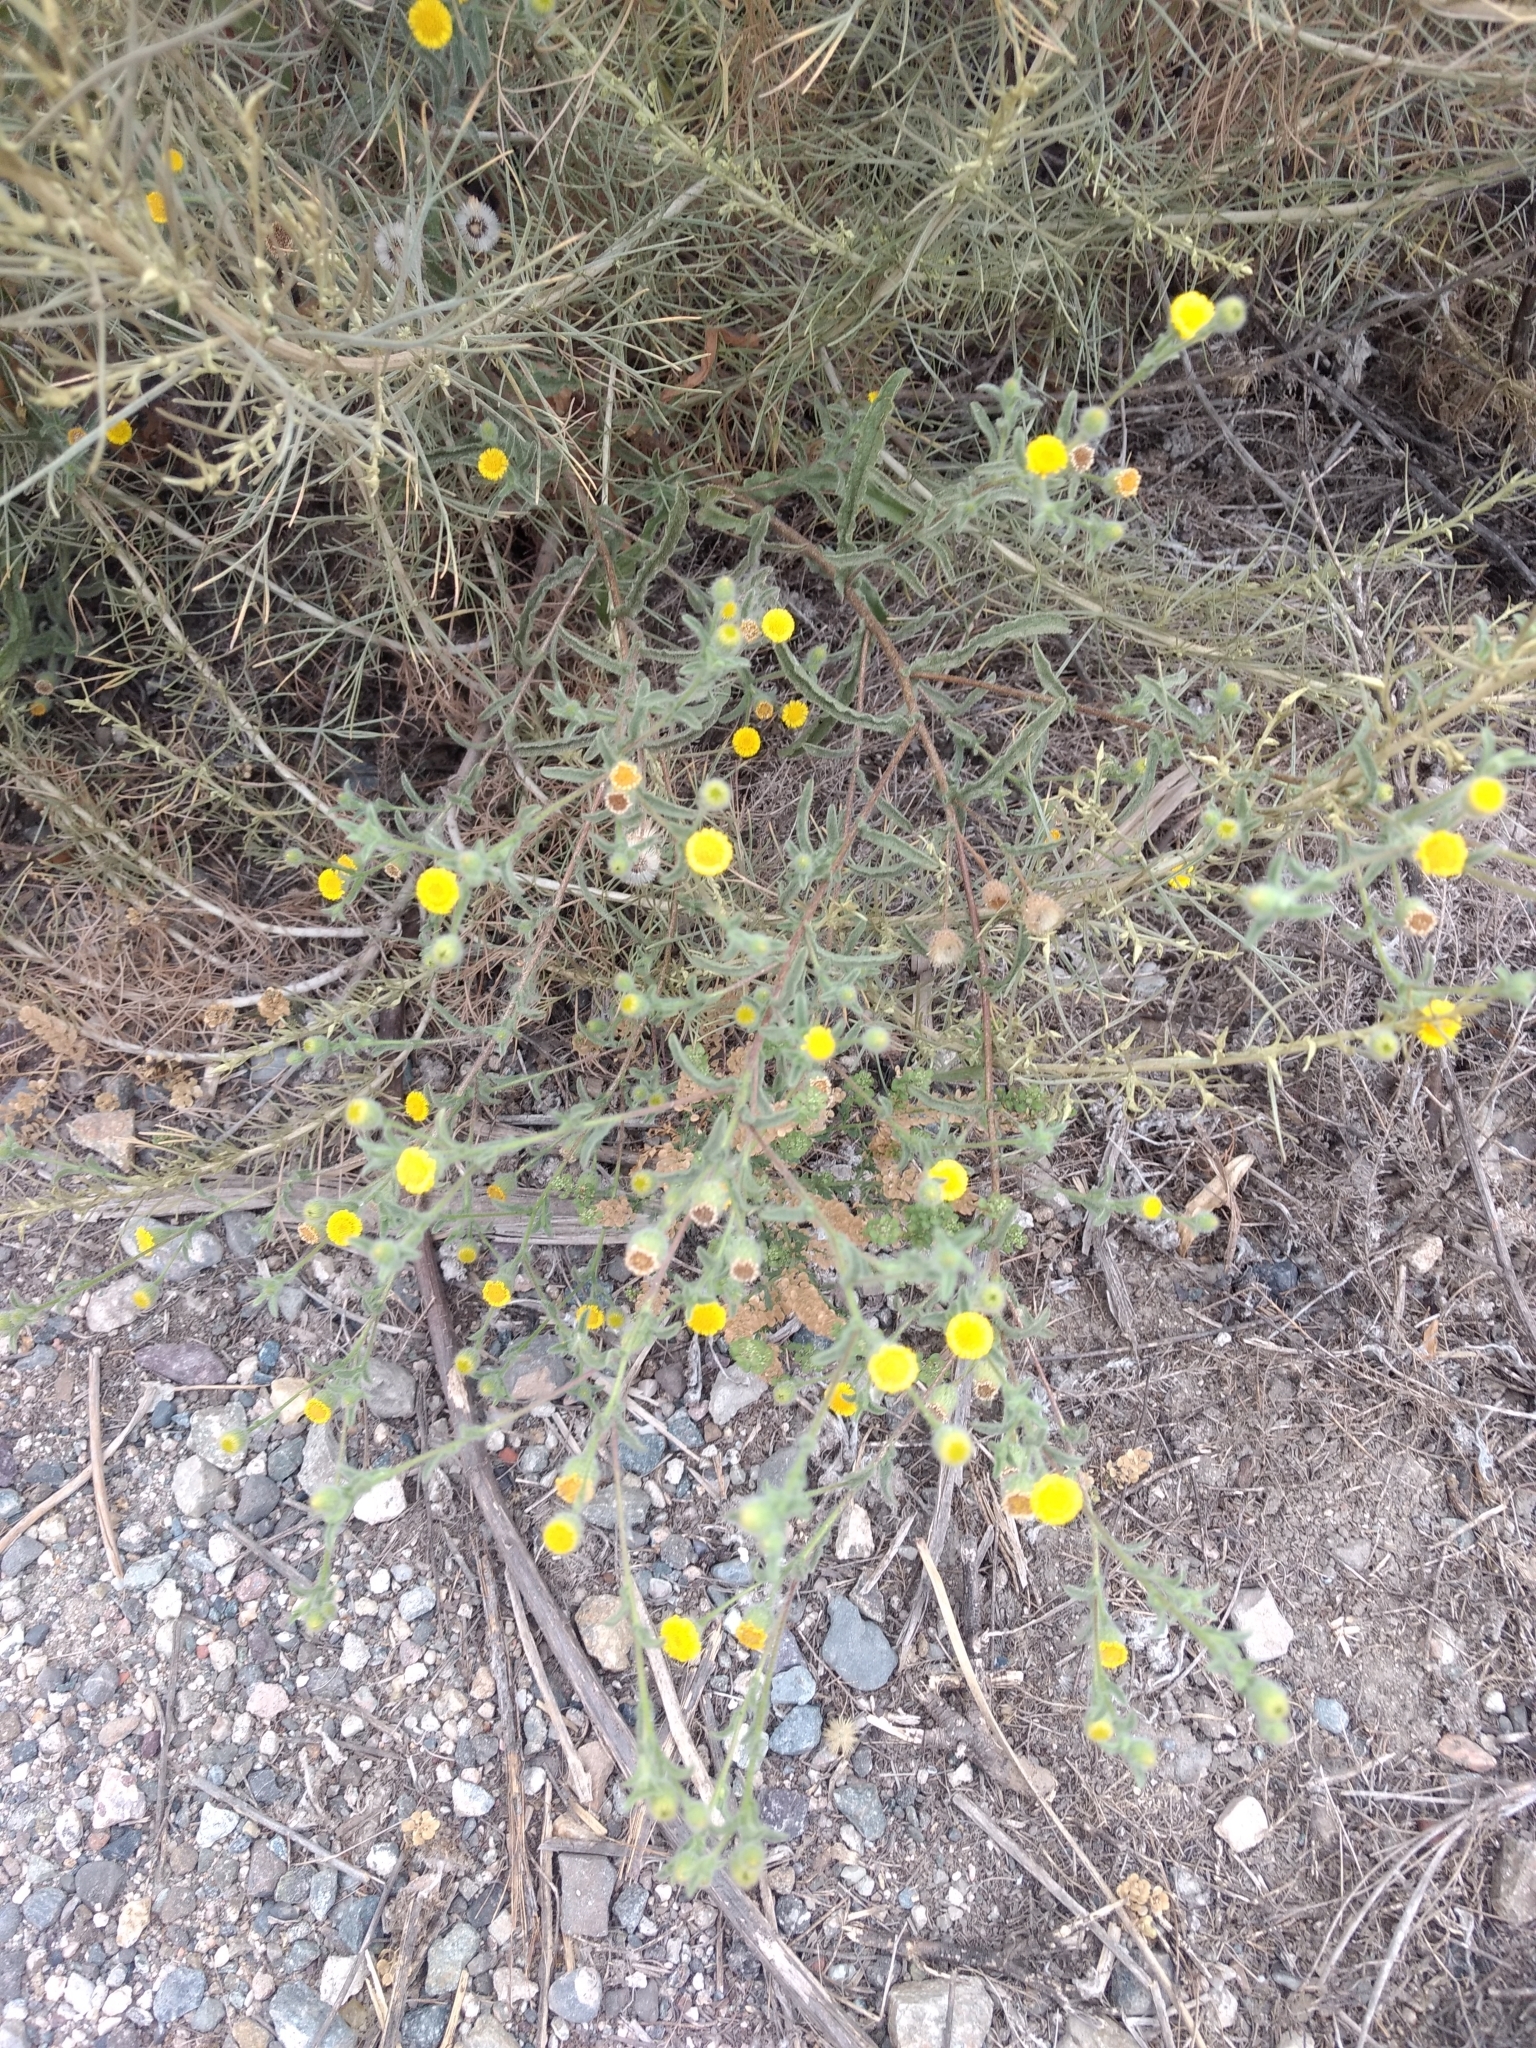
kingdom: Plantae
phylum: Tracheophyta
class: Magnoliopsida
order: Asterales
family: Asteraceae
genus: Pulicaria
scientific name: Pulicaria paludosa
